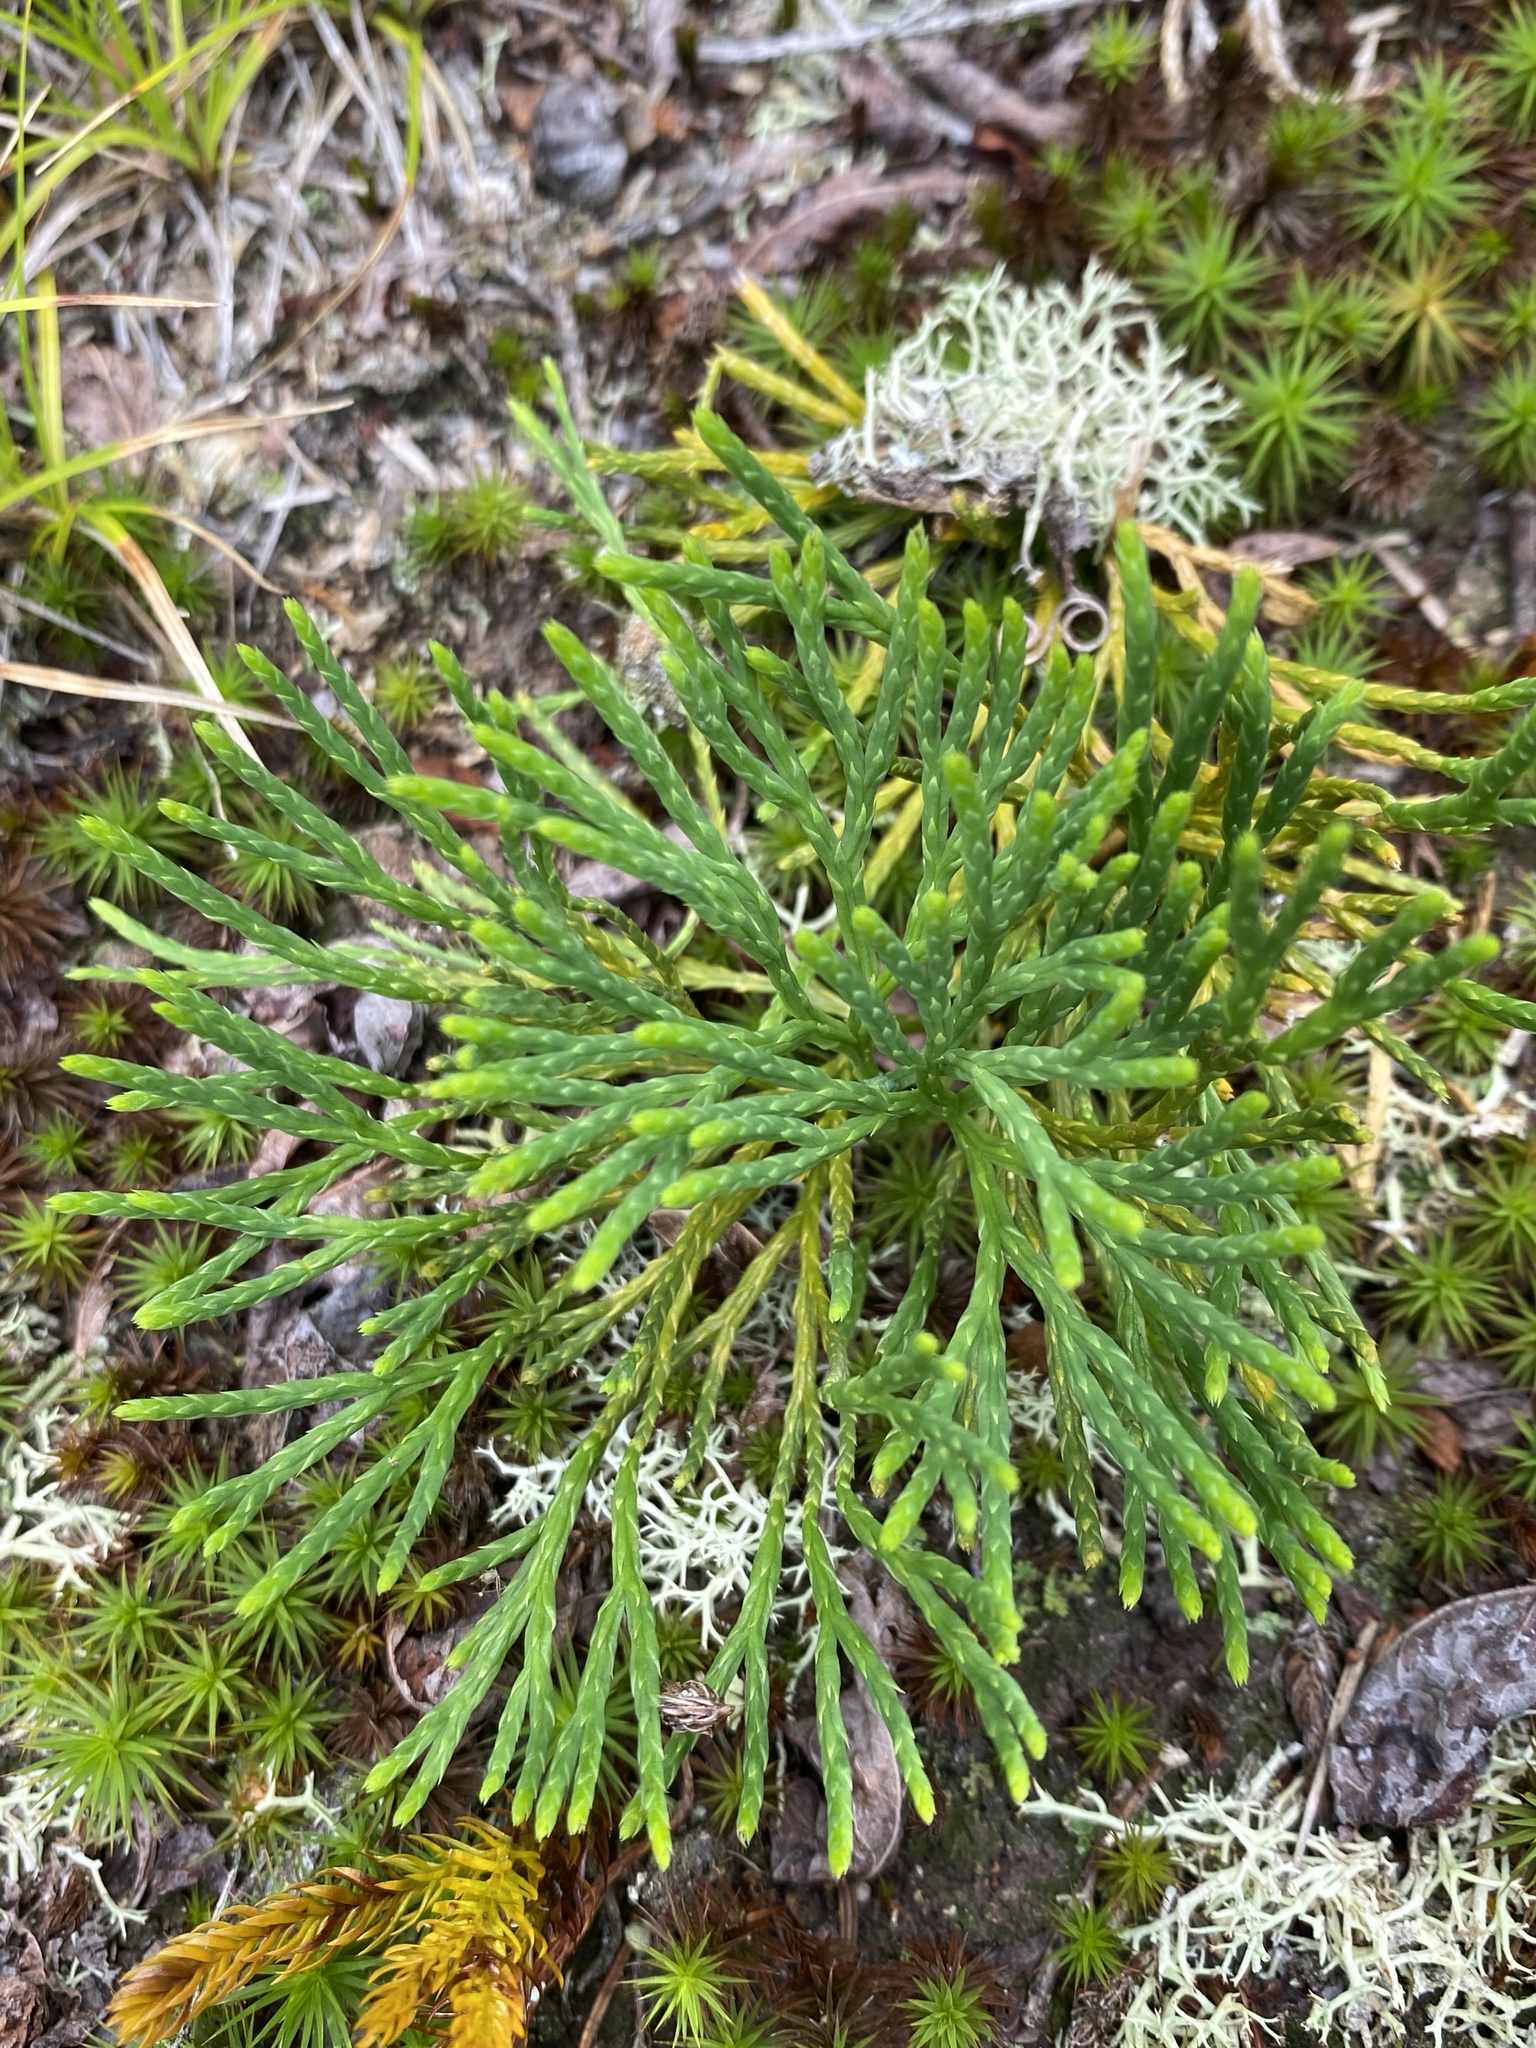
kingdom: Plantae
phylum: Tracheophyta
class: Lycopodiopsida
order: Lycopodiales
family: Lycopodiaceae
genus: Diphasiastrum
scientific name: Diphasiastrum tristachyum
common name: Blue ground-cedar
